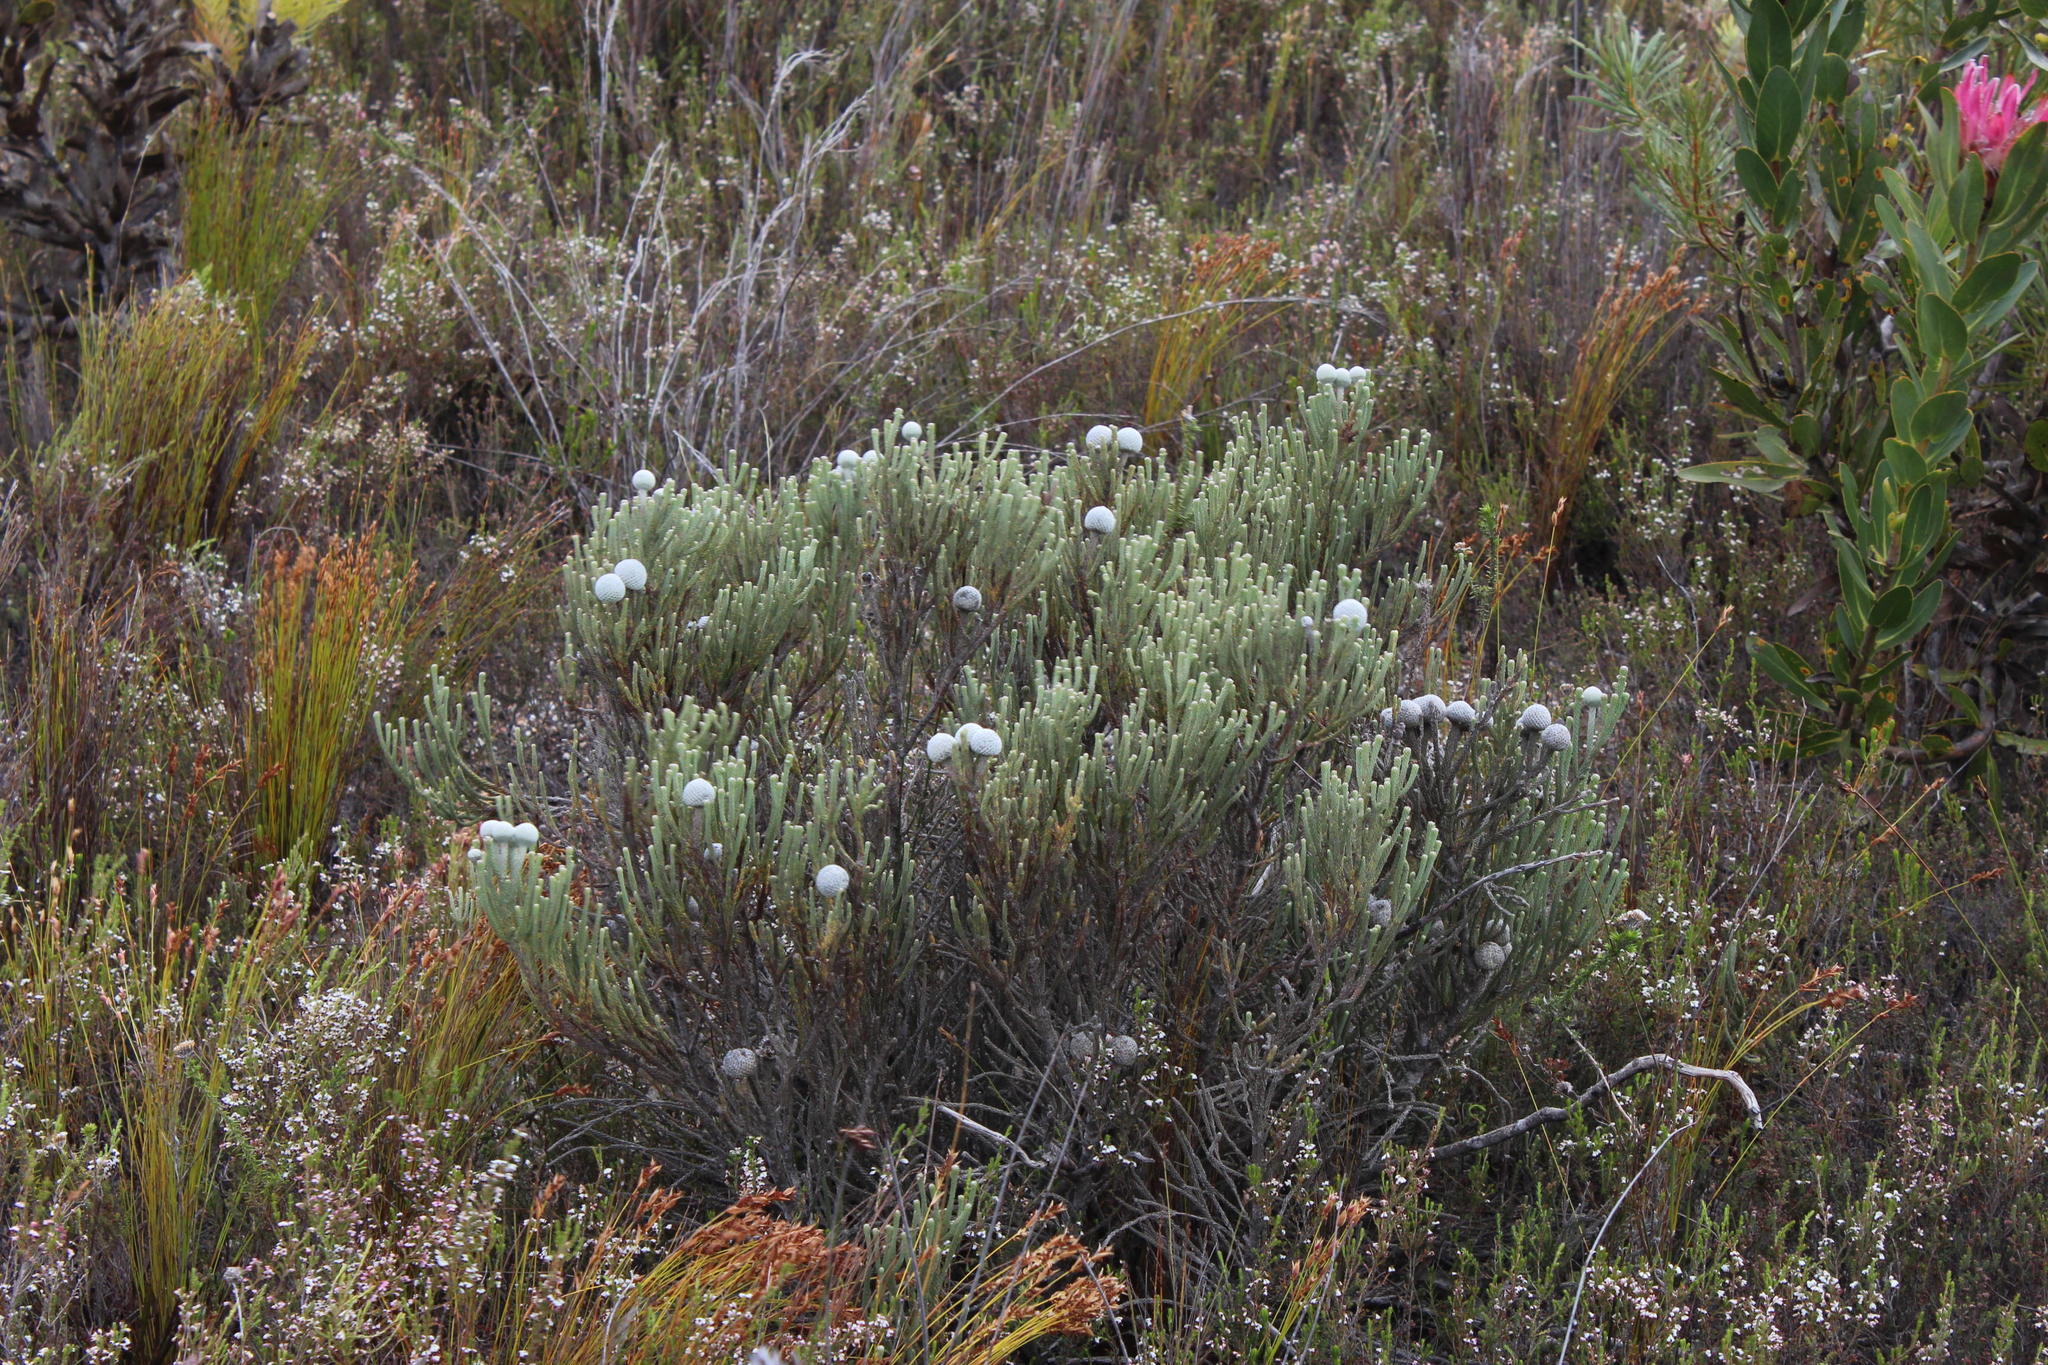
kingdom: Plantae
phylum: Tracheophyta
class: Magnoliopsida
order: Bruniales
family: Bruniaceae
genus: Brunia
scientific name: Brunia laevis
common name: Silver brunia
